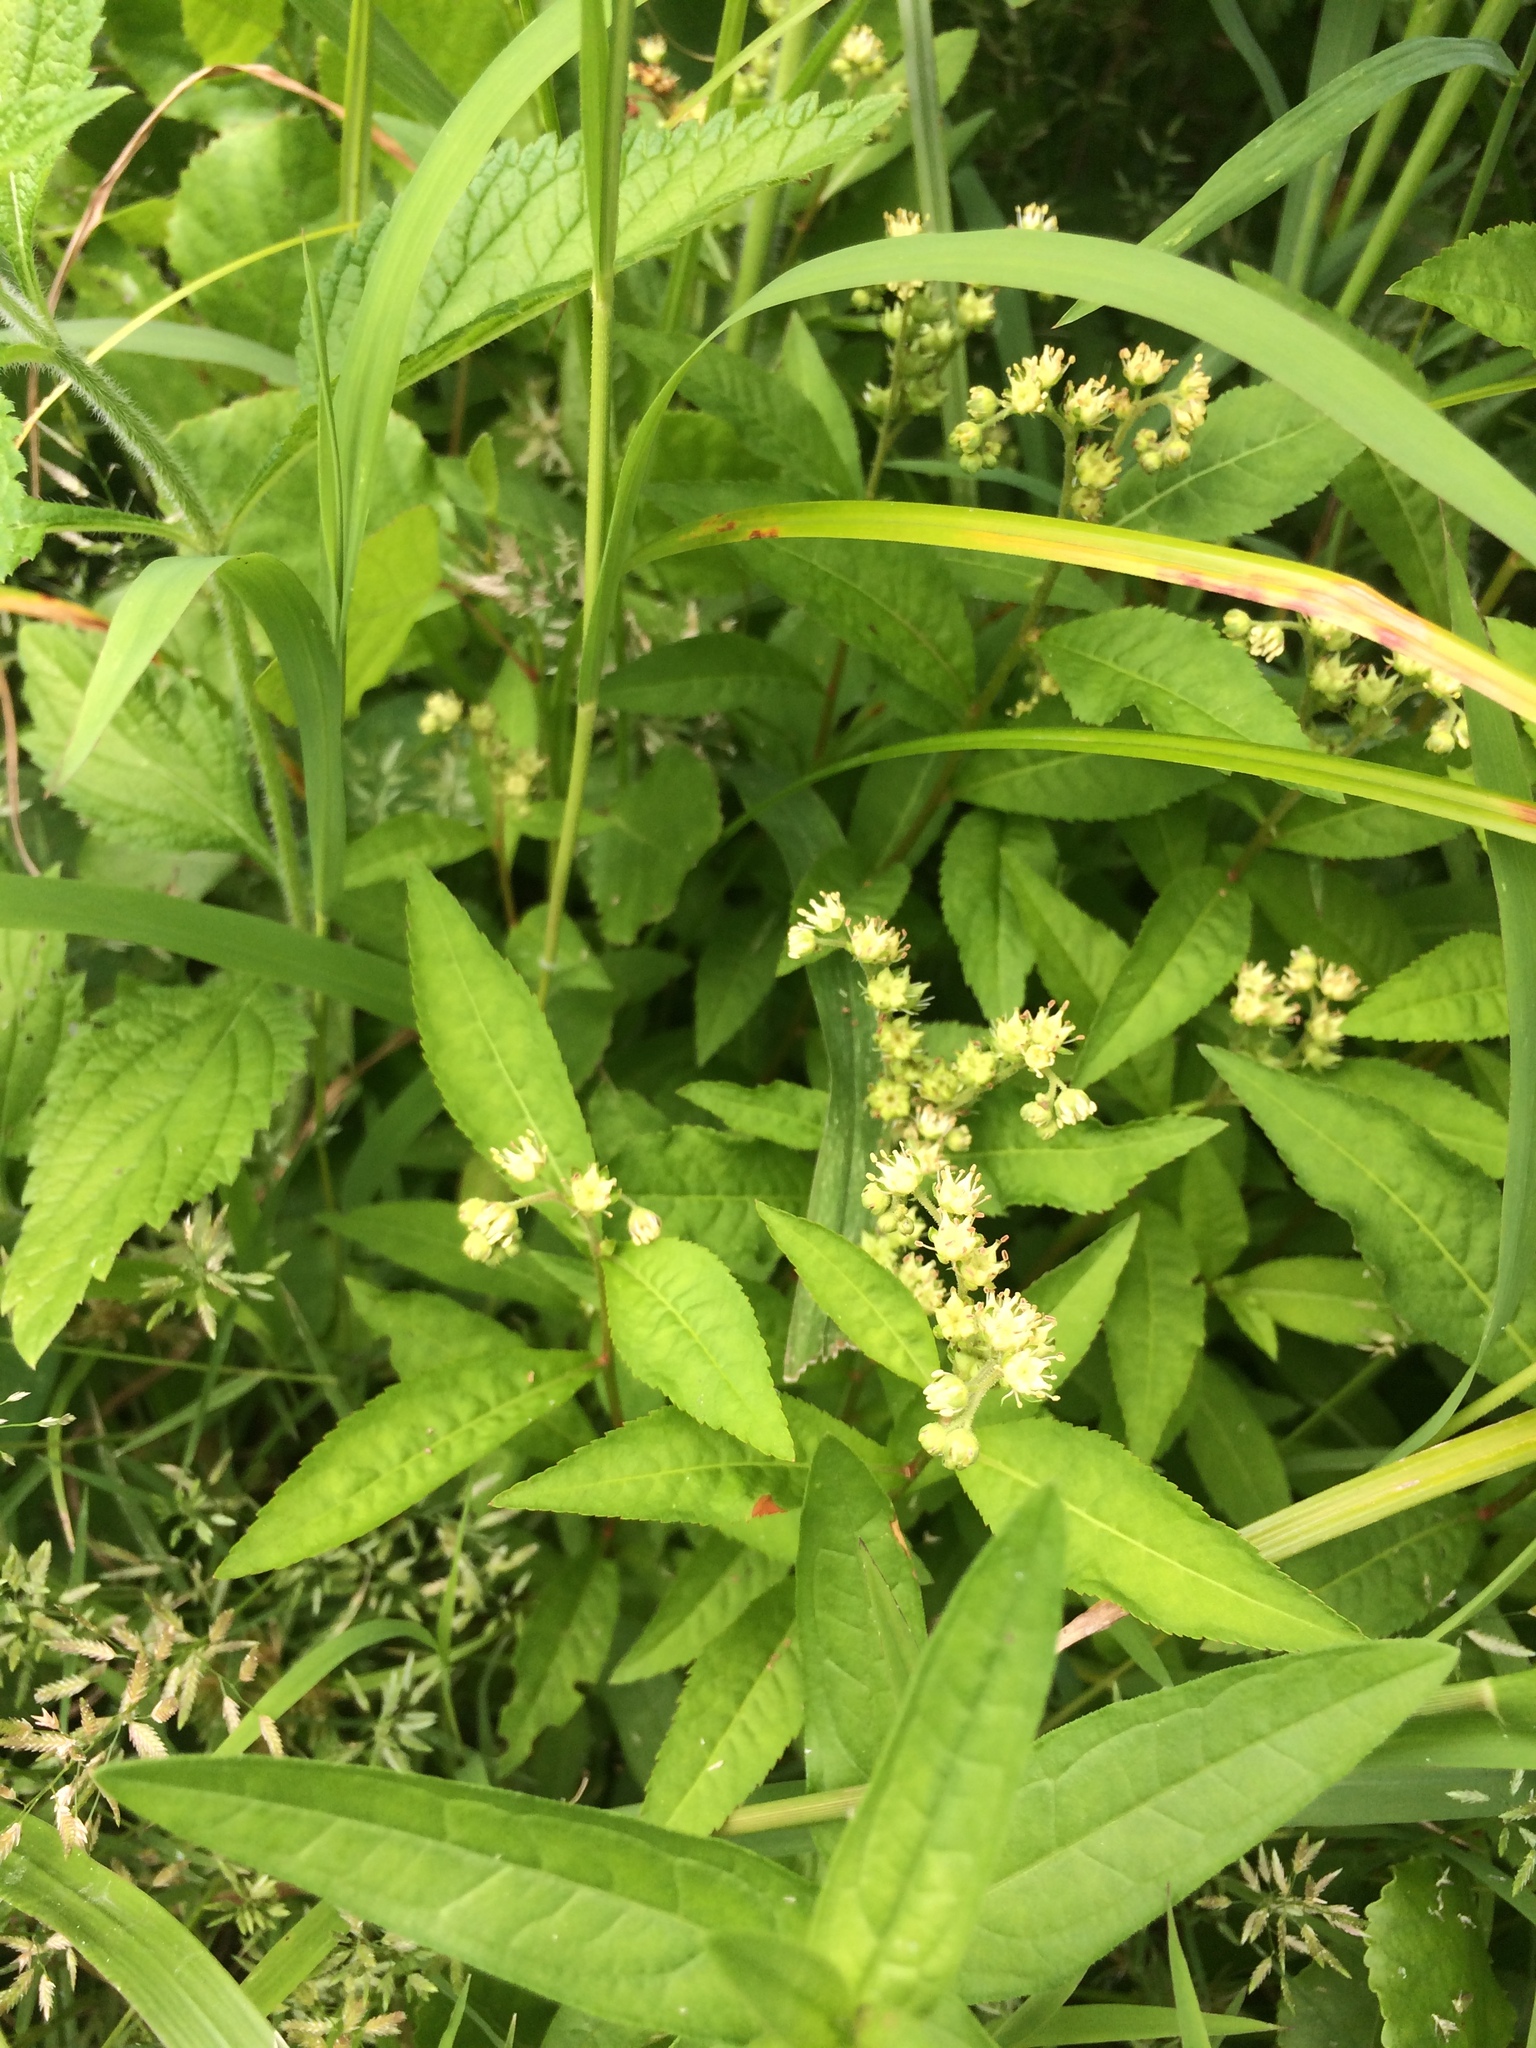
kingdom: Plantae
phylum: Tracheophyta
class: Magnoliopsida
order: Saxifragales
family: Penthoraceae
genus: Penthorum
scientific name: Penthorum sedoides
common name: Ditch stonecrop
